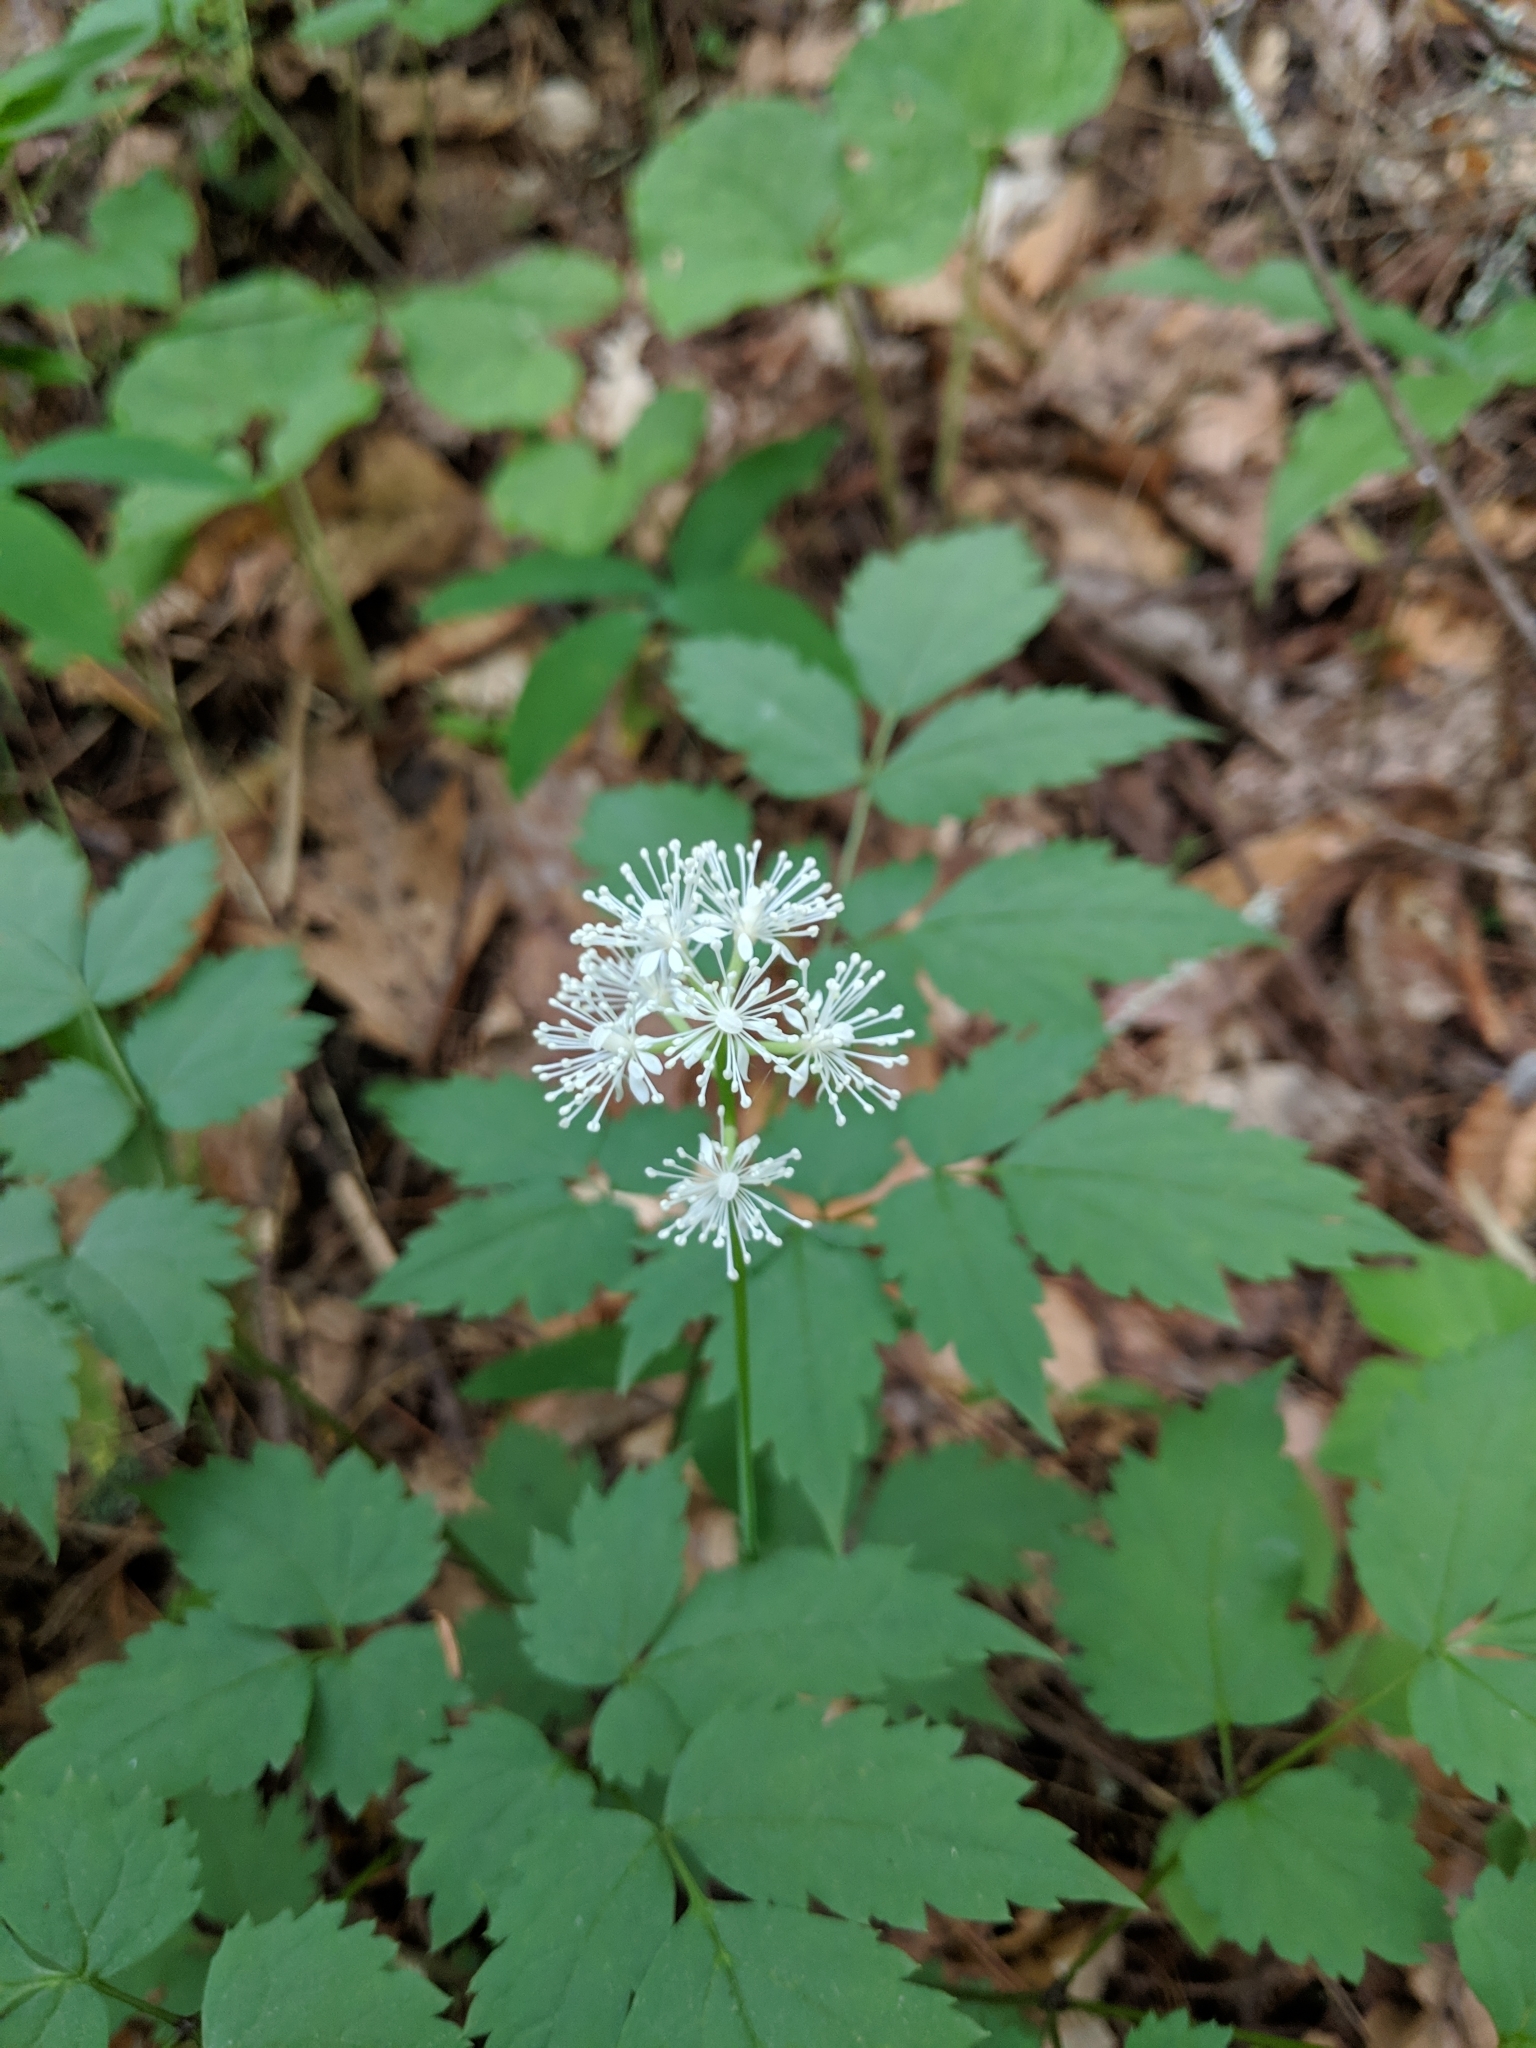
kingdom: Plantae
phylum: Tracheophyta
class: Magnoliopsida
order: Ranunculales
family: Ranunculaceae
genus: Actaea
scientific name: Actaea pachypoda
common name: Doll's-eyes
